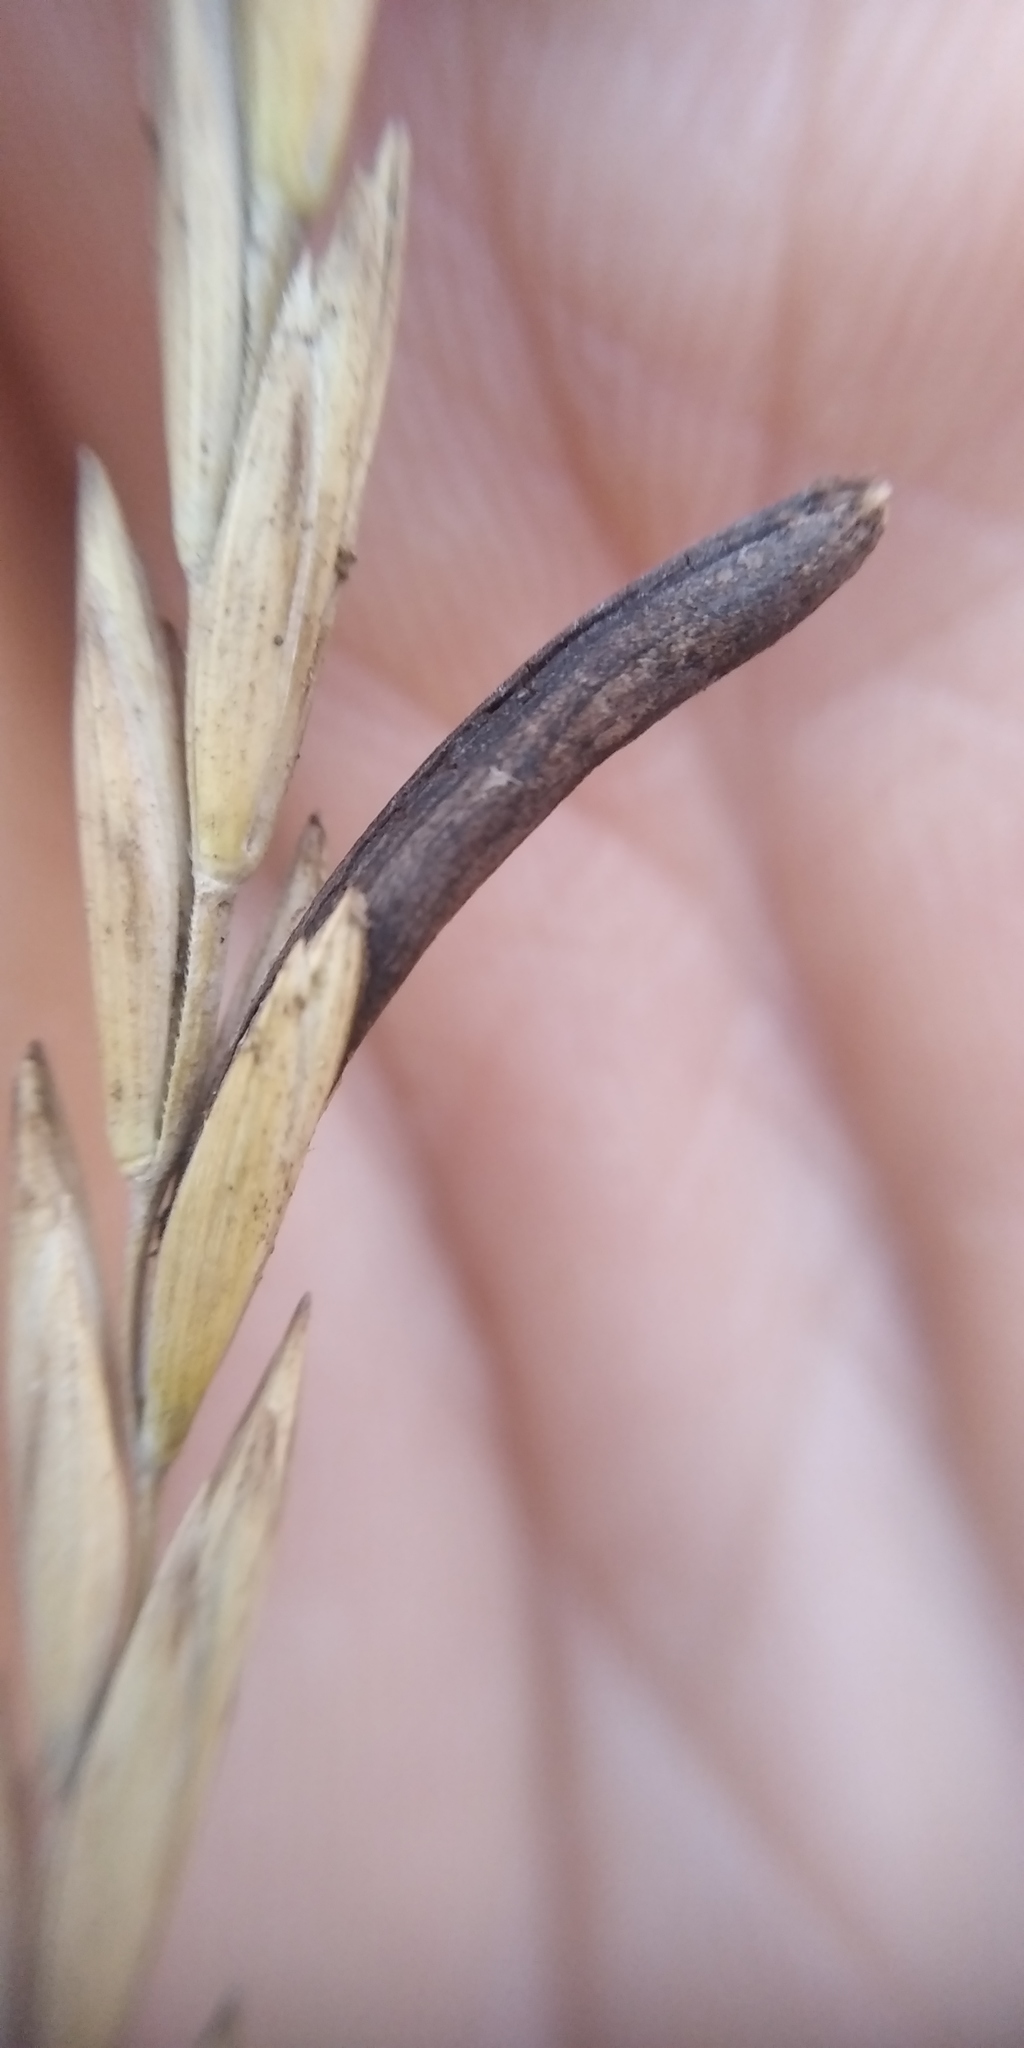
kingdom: Fungi
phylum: Ascomycota
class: Sordariomycetes
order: Hypocreales
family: Clavicipitaceae
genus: Claviceps
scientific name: Claviceps purpurea
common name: Rye ergot
